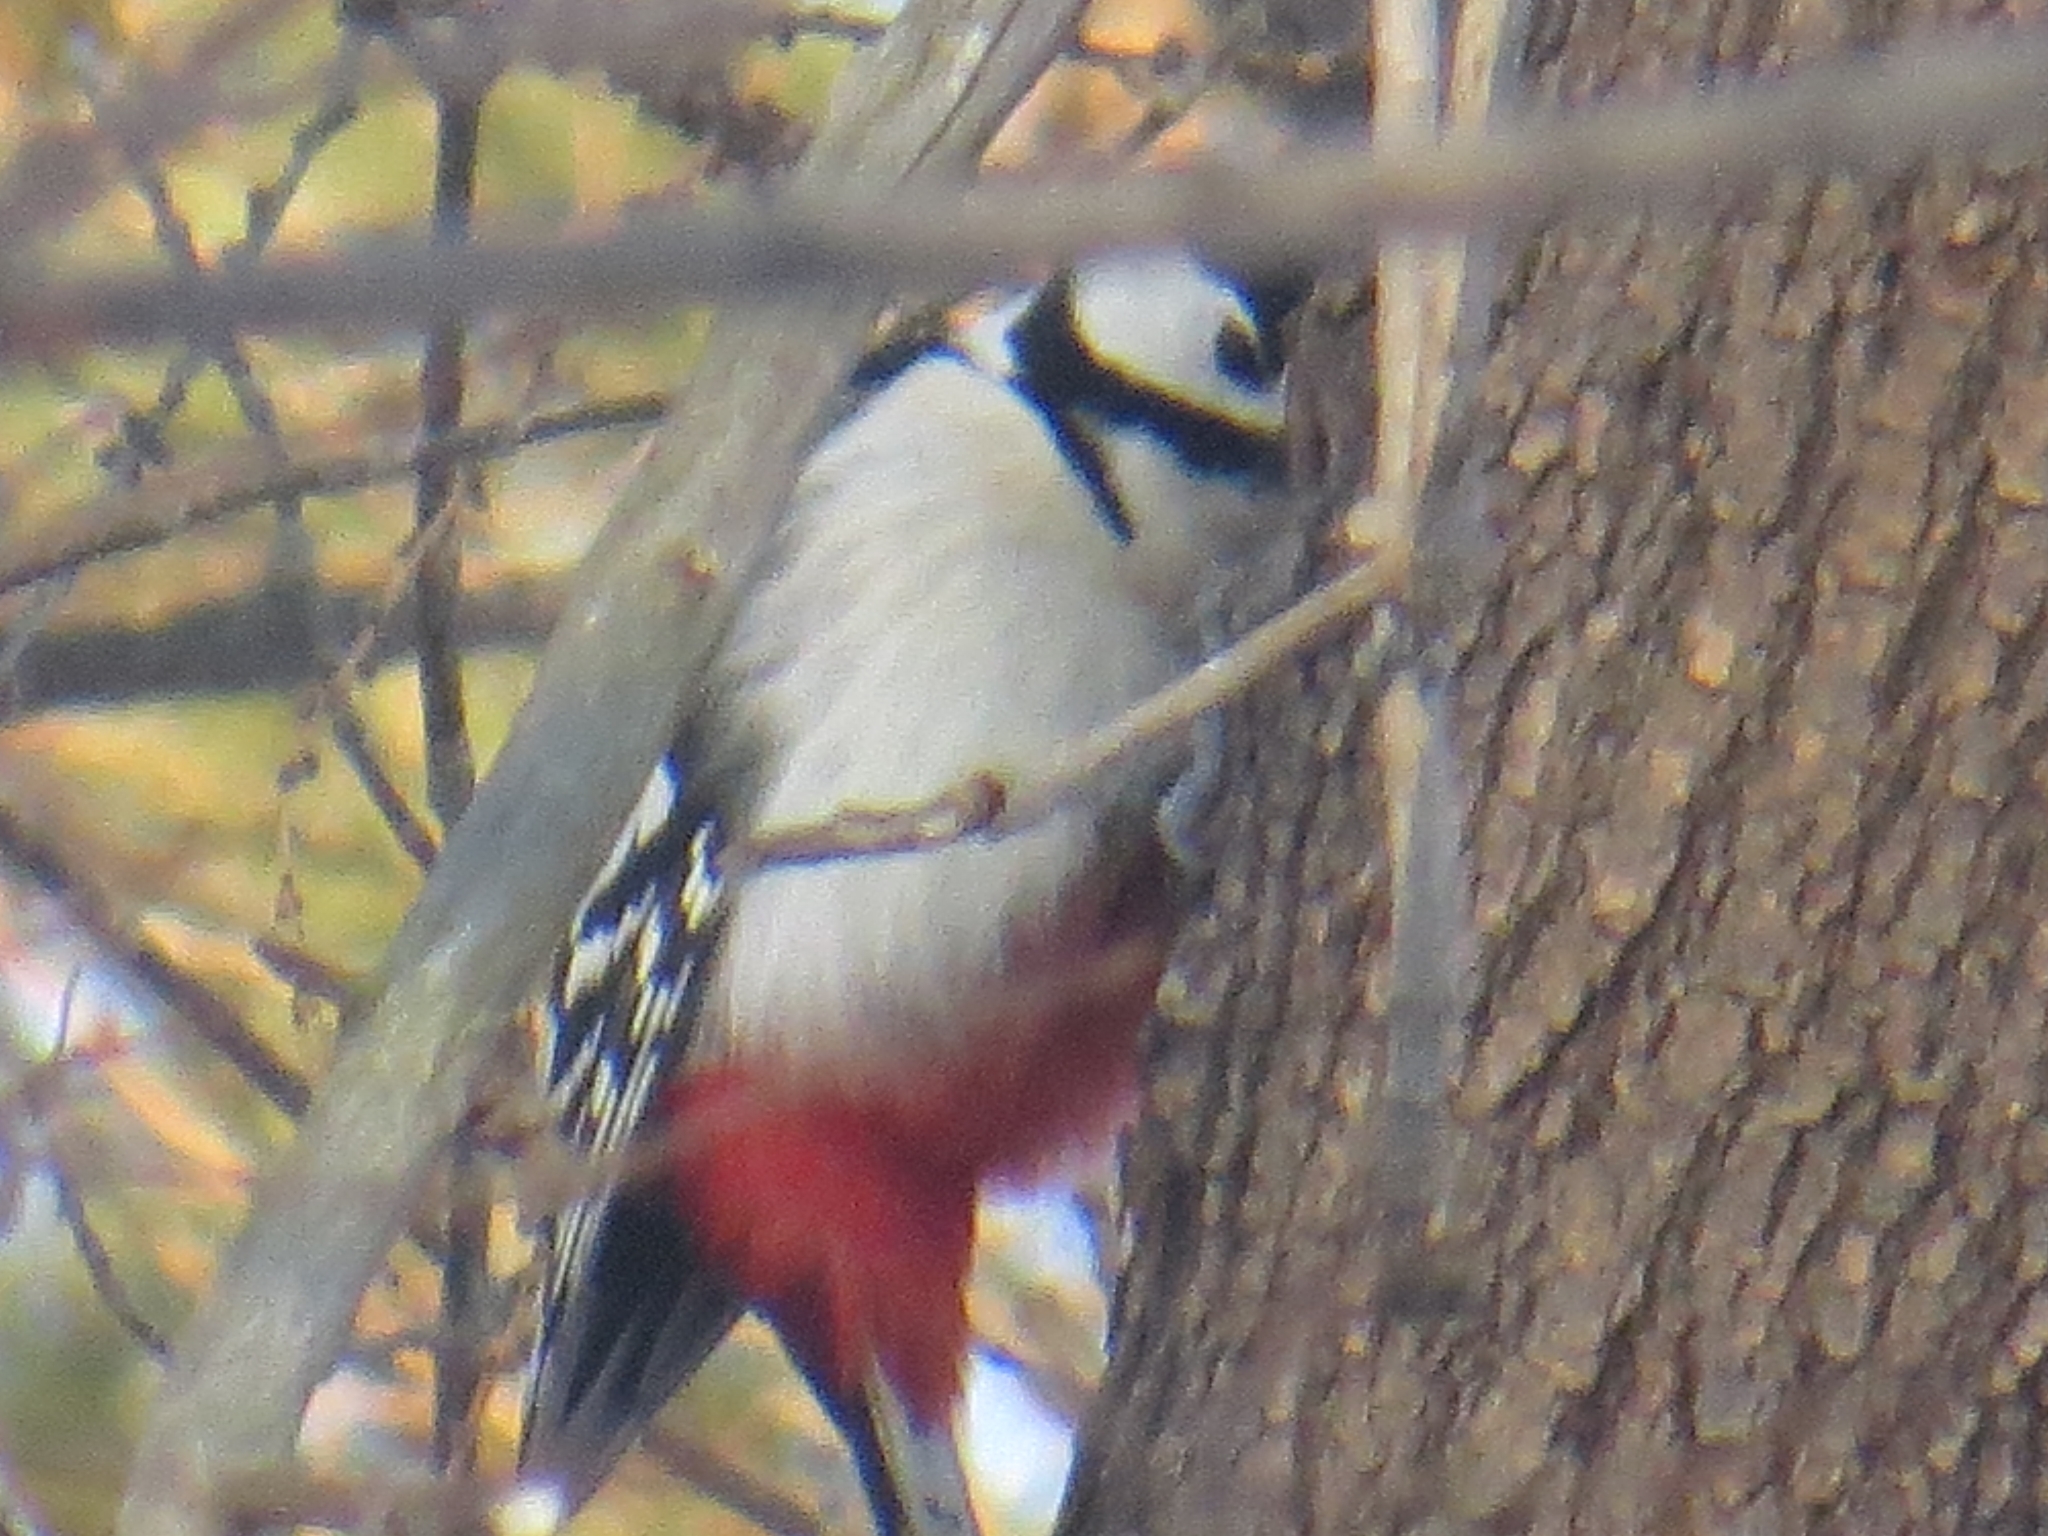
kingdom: Animalia
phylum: Chordata
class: Aves
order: Piciformes
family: Picidae
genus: Dendrocopos
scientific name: Dendrocopos major
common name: Great spotted woodpecker
